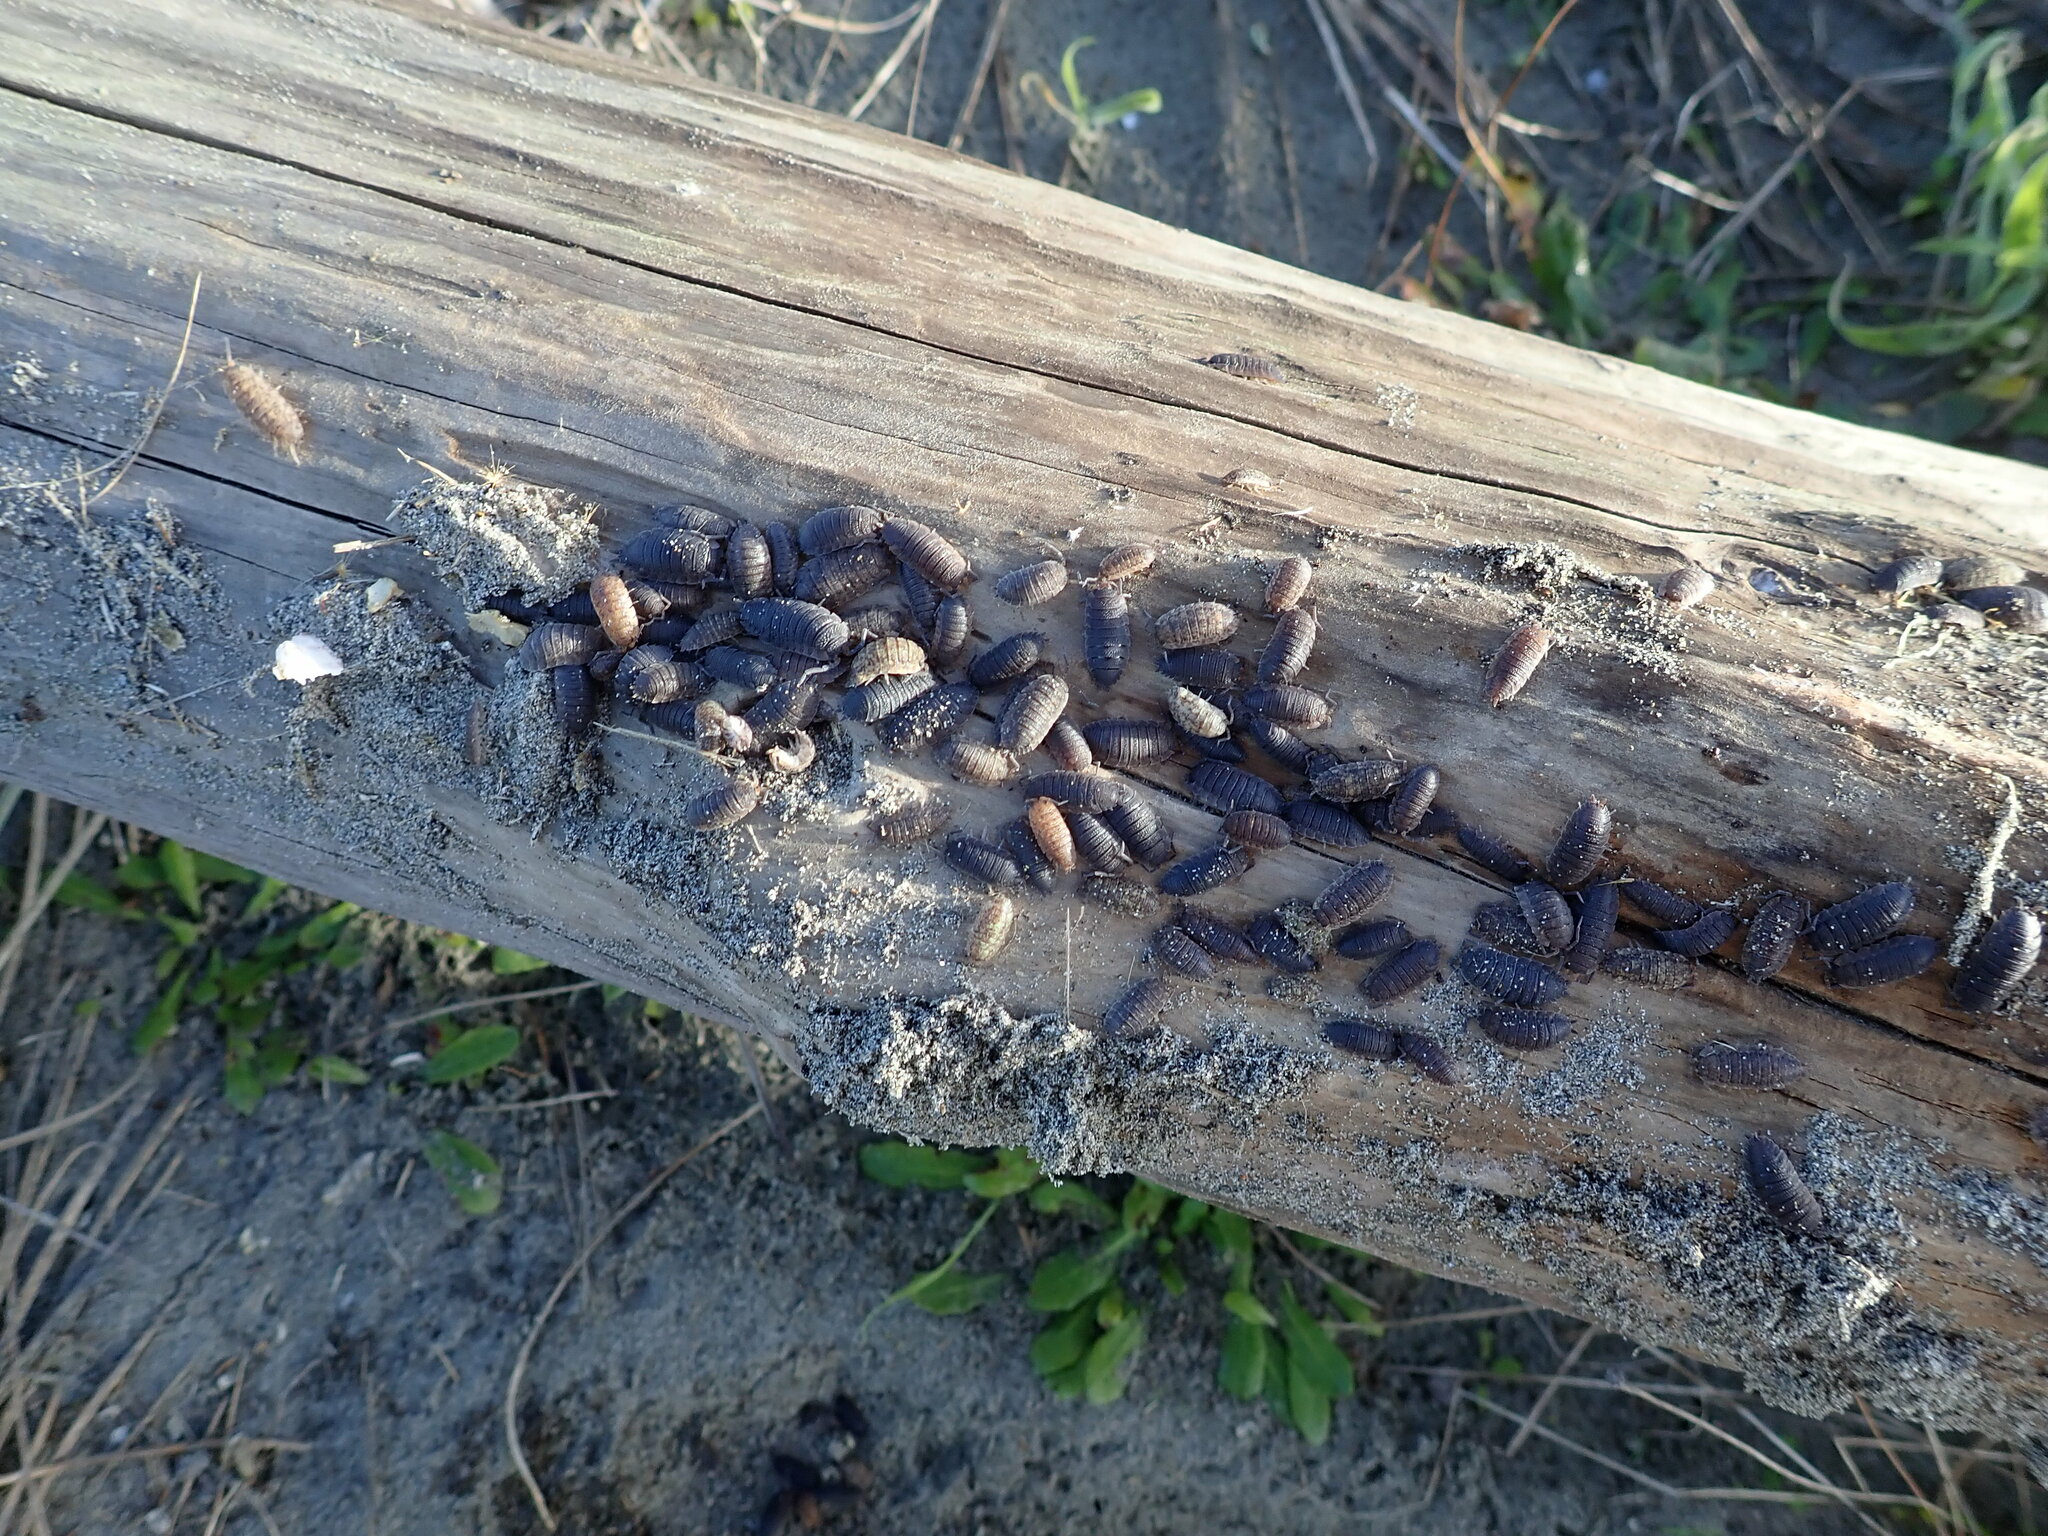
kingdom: Animalia
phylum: Arthropoda
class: Malacostraca
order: Isopoda
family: Porcellionidae
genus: Porcellio
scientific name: Porcellio scaber
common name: Common rough woodlouse
